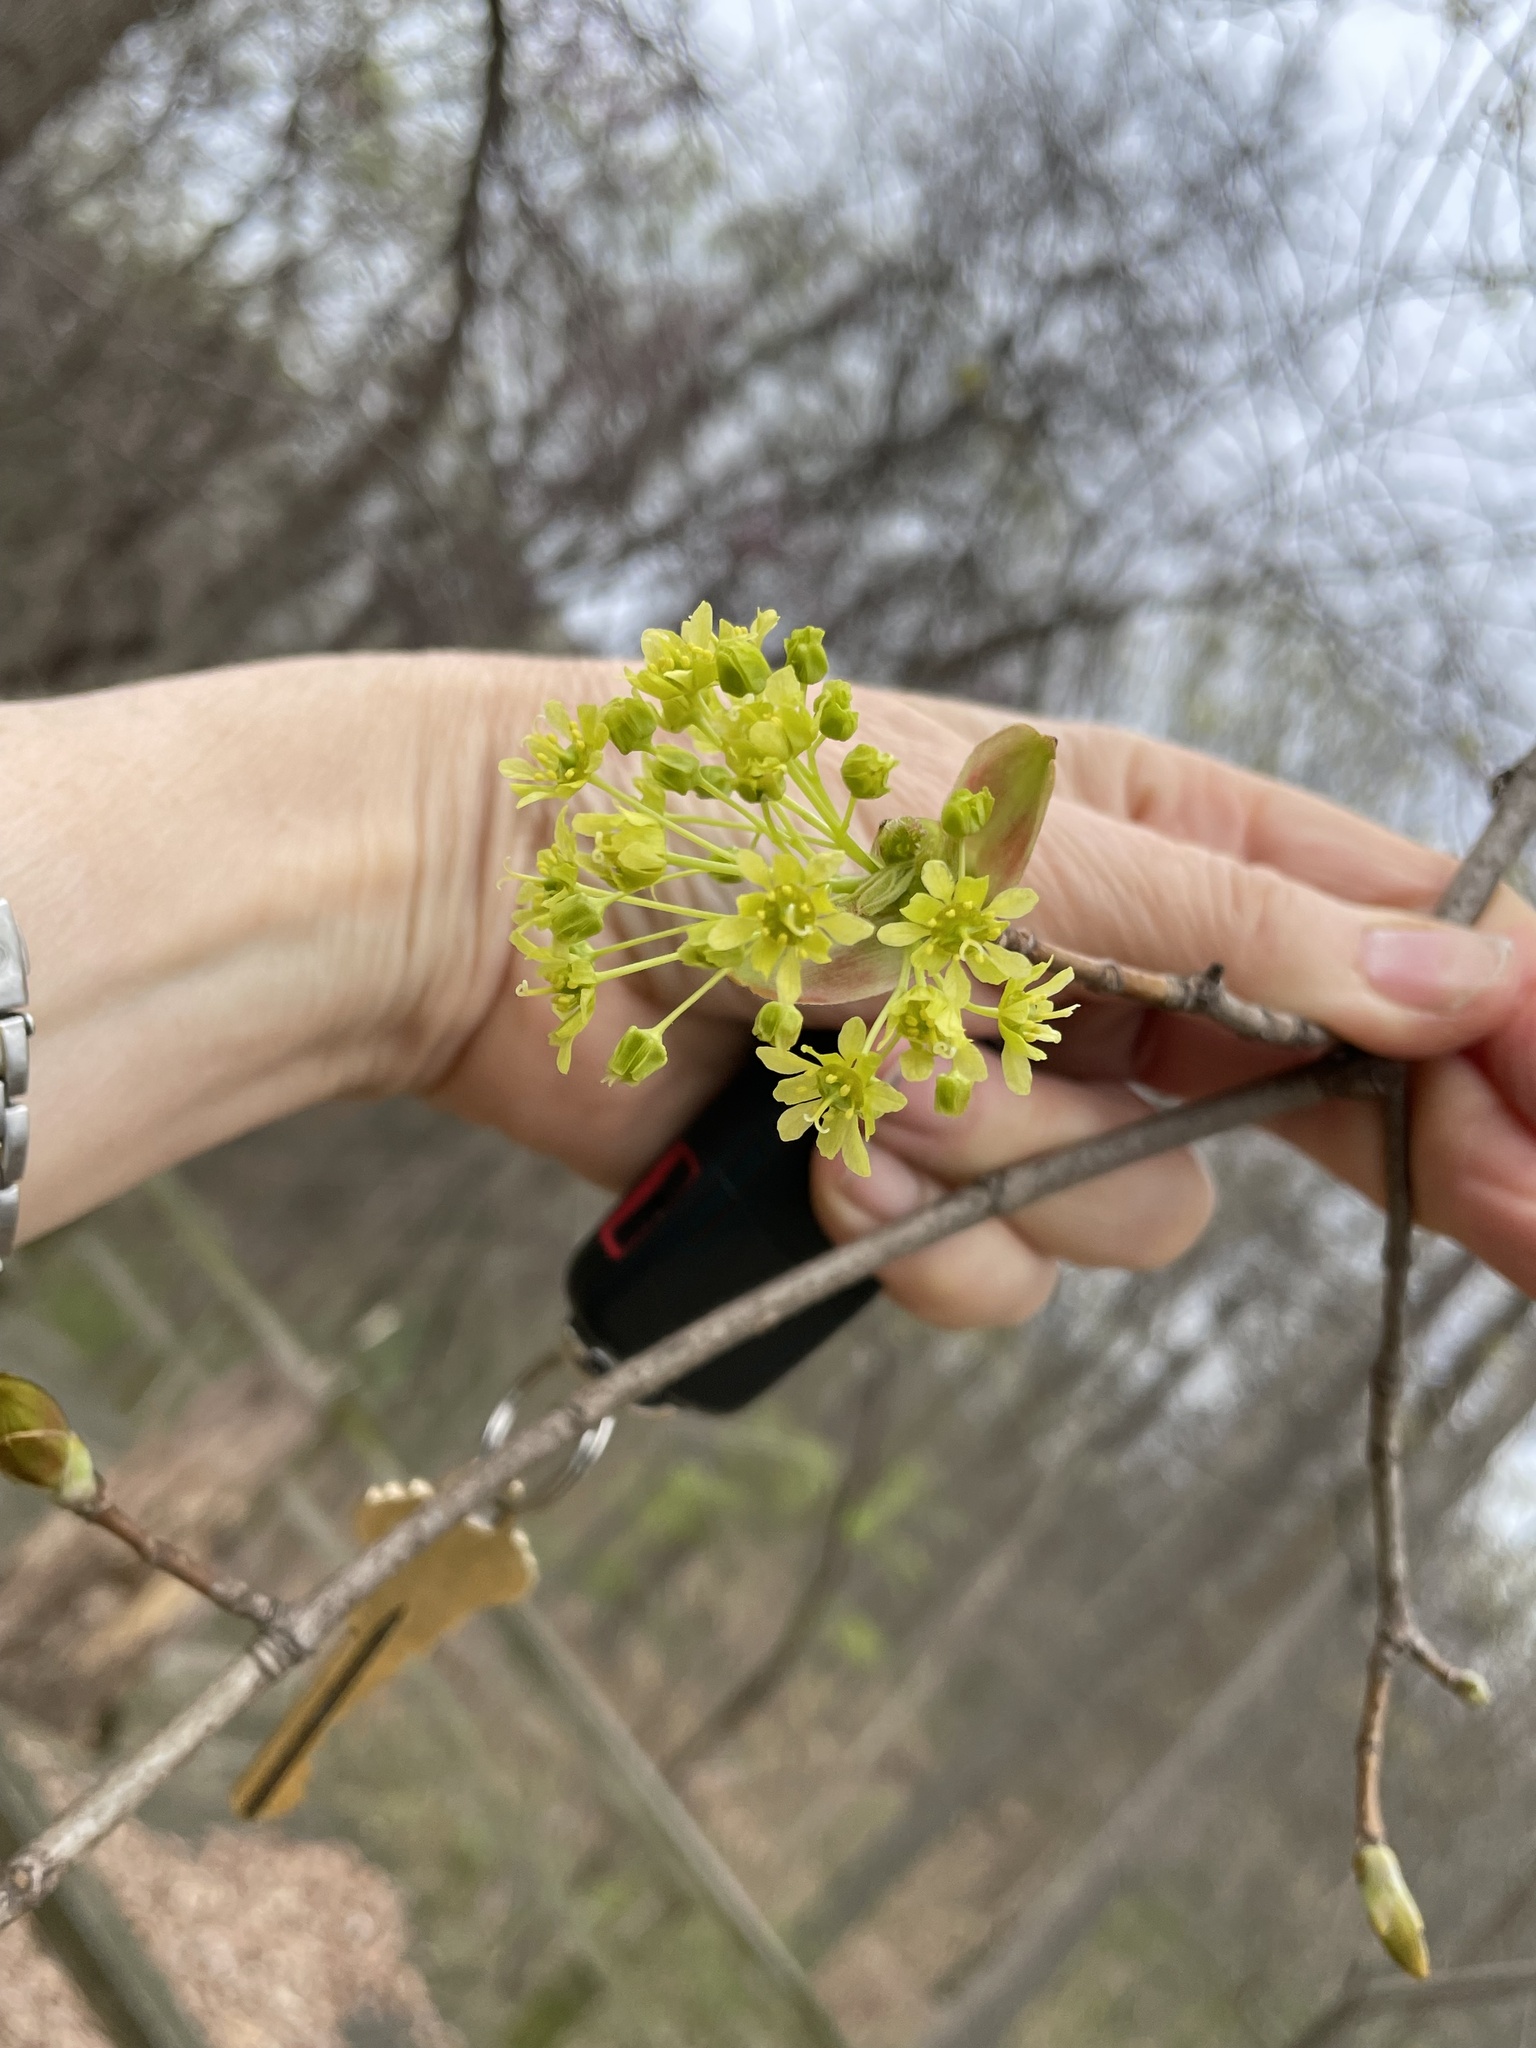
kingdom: Plantae
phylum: Tracheophyta
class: Magnoliopsida
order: Sapindales
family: Sapindaceae
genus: Acer
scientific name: Acer platanoides
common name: Norway maple
